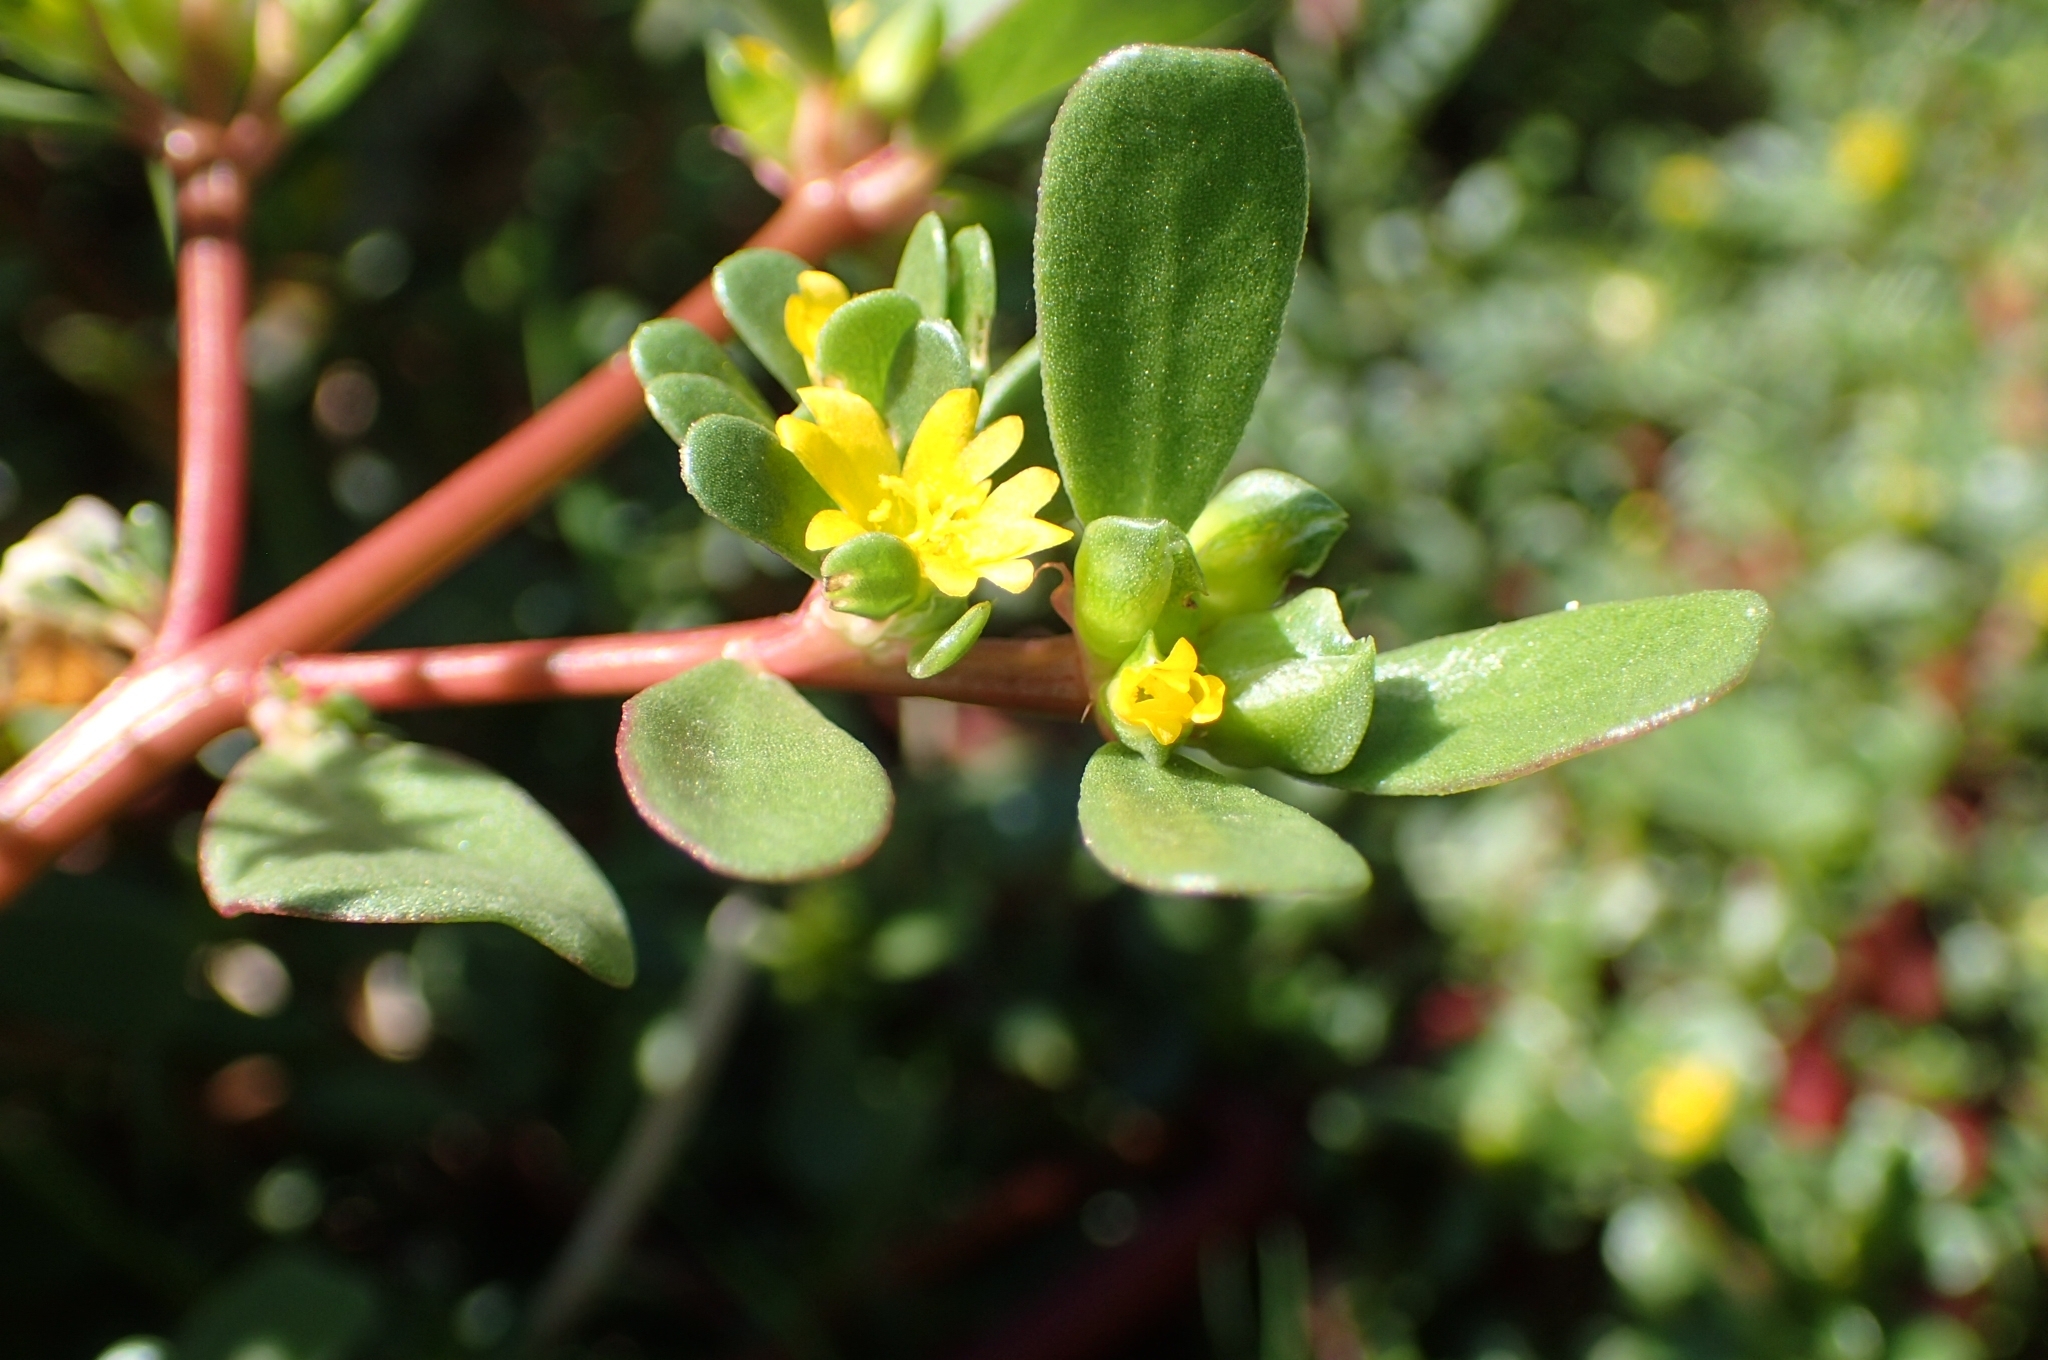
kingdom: Plantae
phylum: Tracheophyta
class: Magnoliopsida
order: Caryophyllales
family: Portulacaceae
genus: Portulaca
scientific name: Portulaca oleracea
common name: Common purslane
